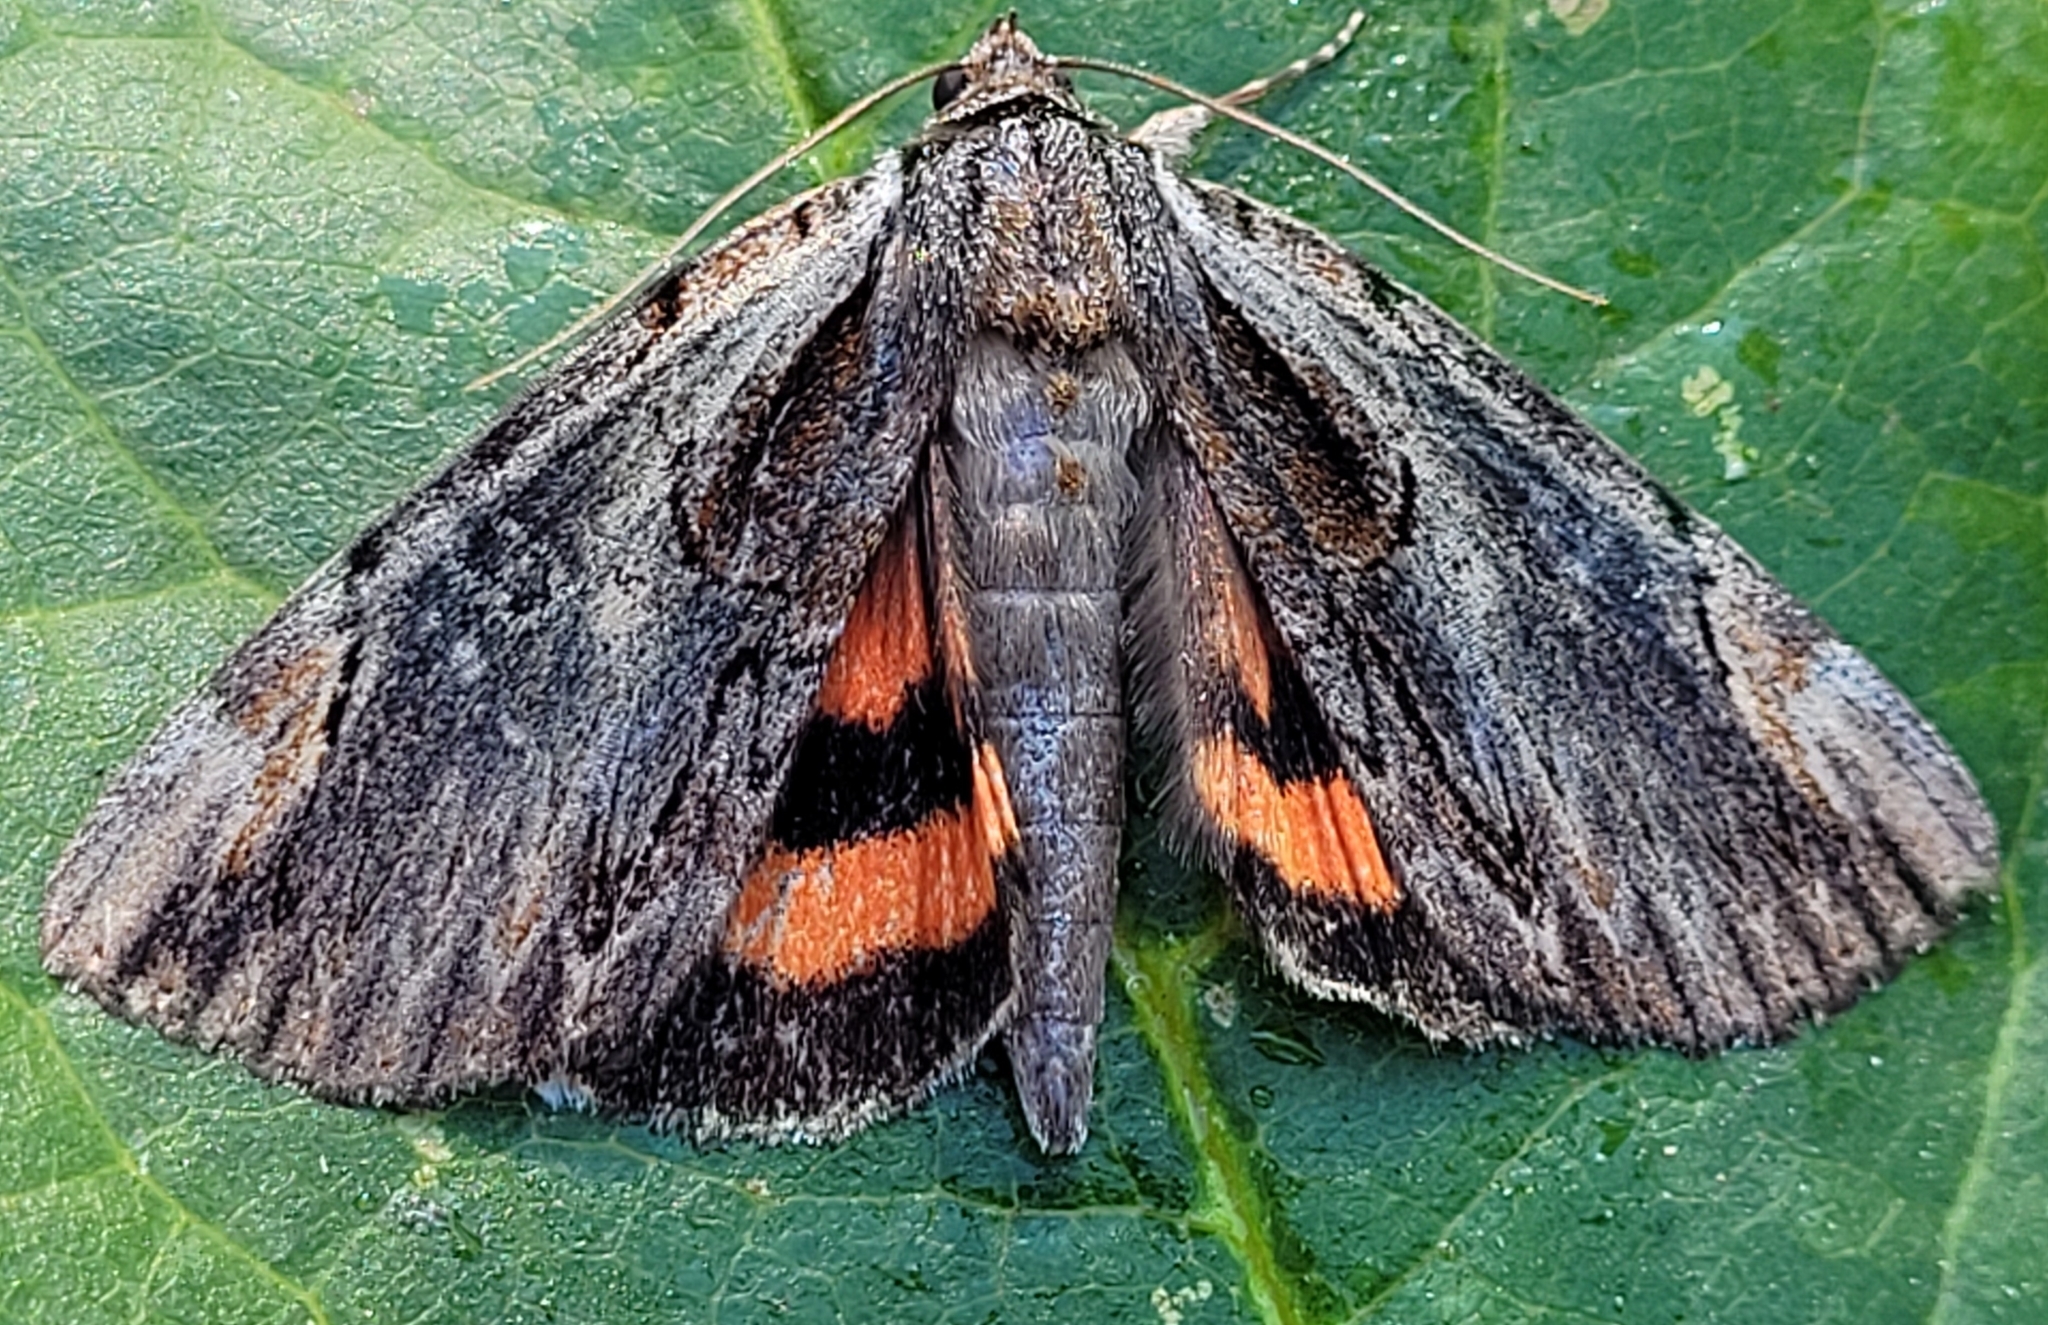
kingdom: Animalia
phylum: Arthropoda
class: Insecta
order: Lepidoptera
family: Erebidae
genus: Catocala
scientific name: Catocala ultronia
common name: Ultronia underwing
